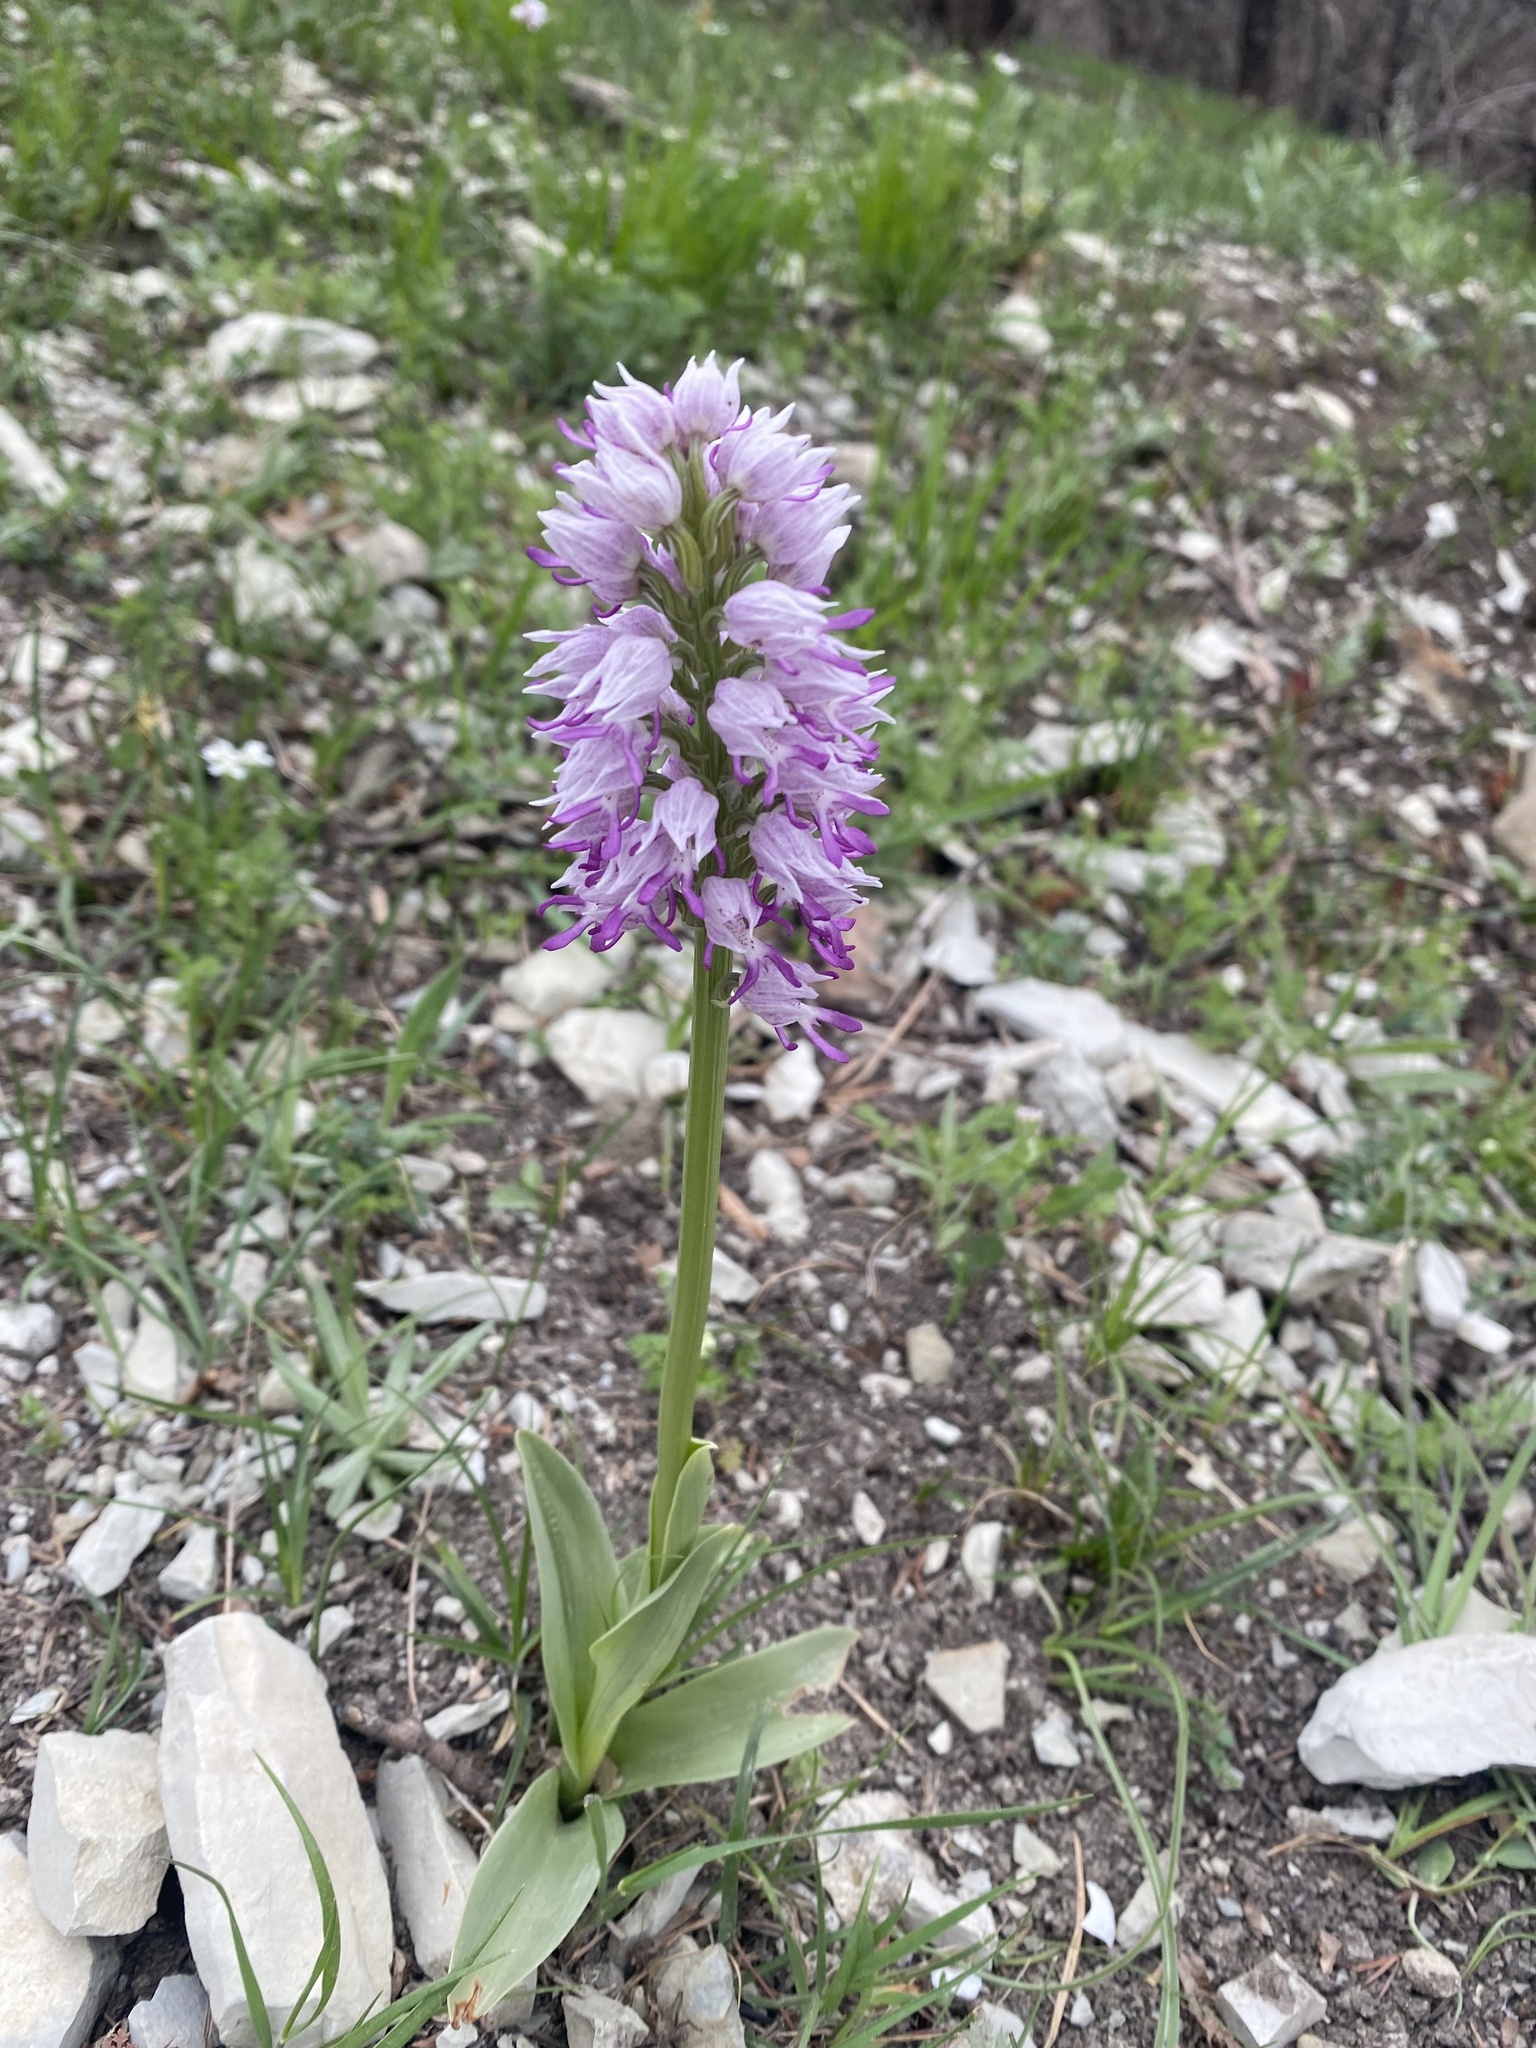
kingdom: Plantae
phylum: Tracheophyta
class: Liliopsida
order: Asparagales
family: Orchidaceae
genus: Orchis
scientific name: Orchis simia
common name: Monkey orchid
